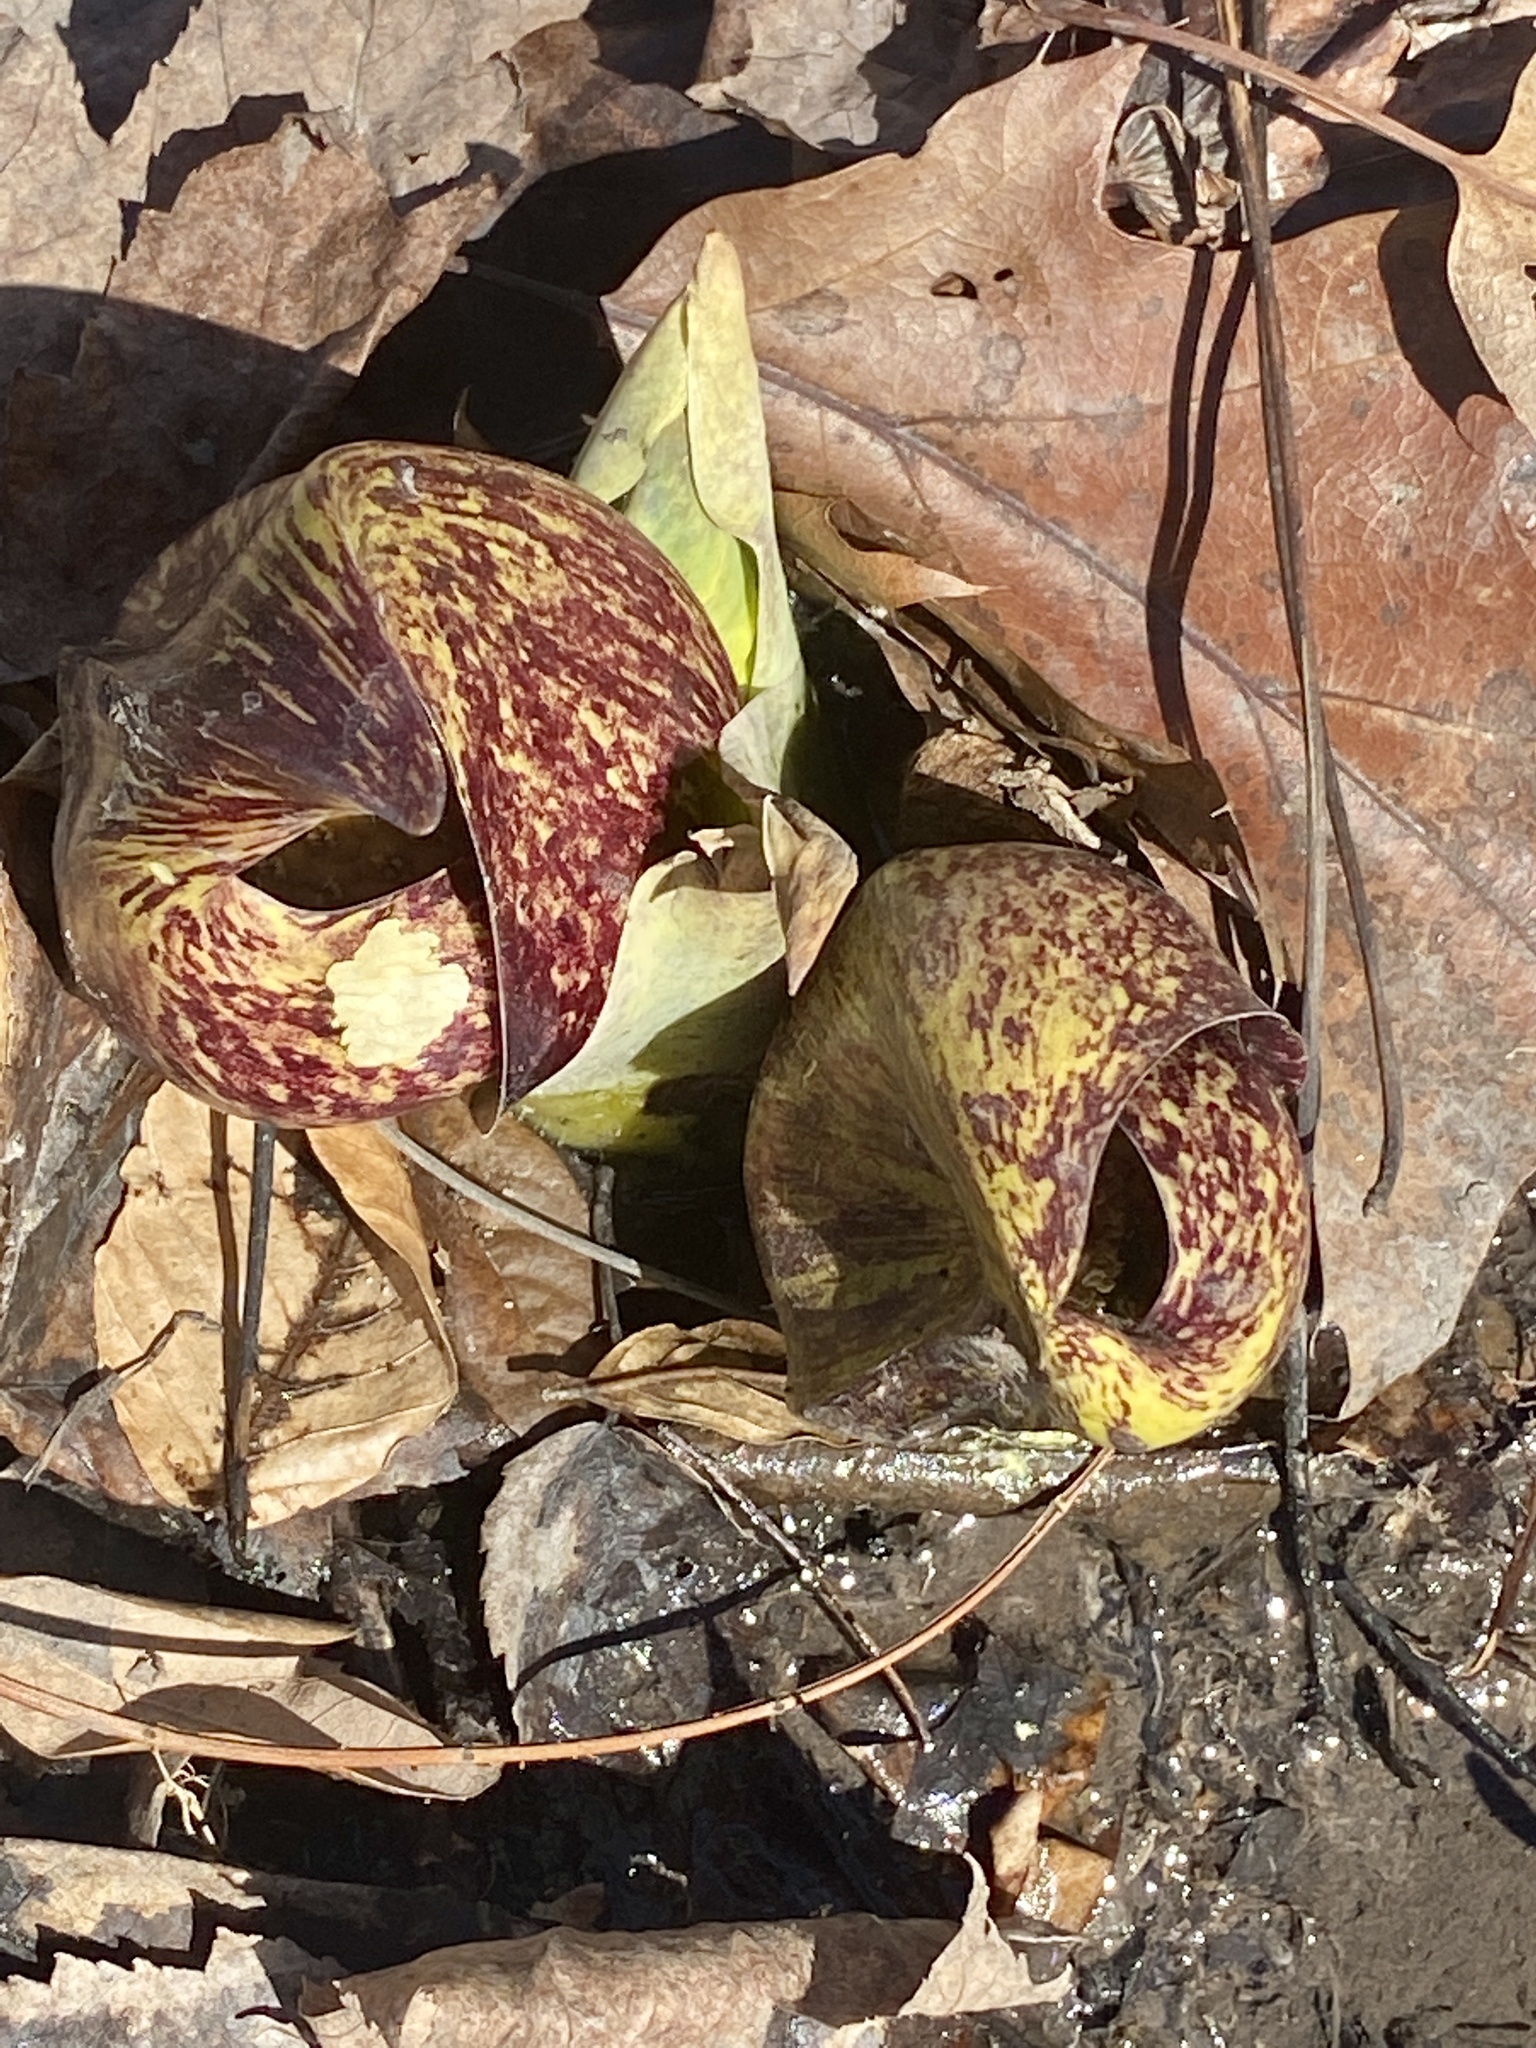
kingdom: Plantae
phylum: Tracheophyta
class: Liliopsida
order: Alismatales
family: Araceae
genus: Symplocarpus
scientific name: Symplocarpus foetidus
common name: Eastern skunk cabbage
